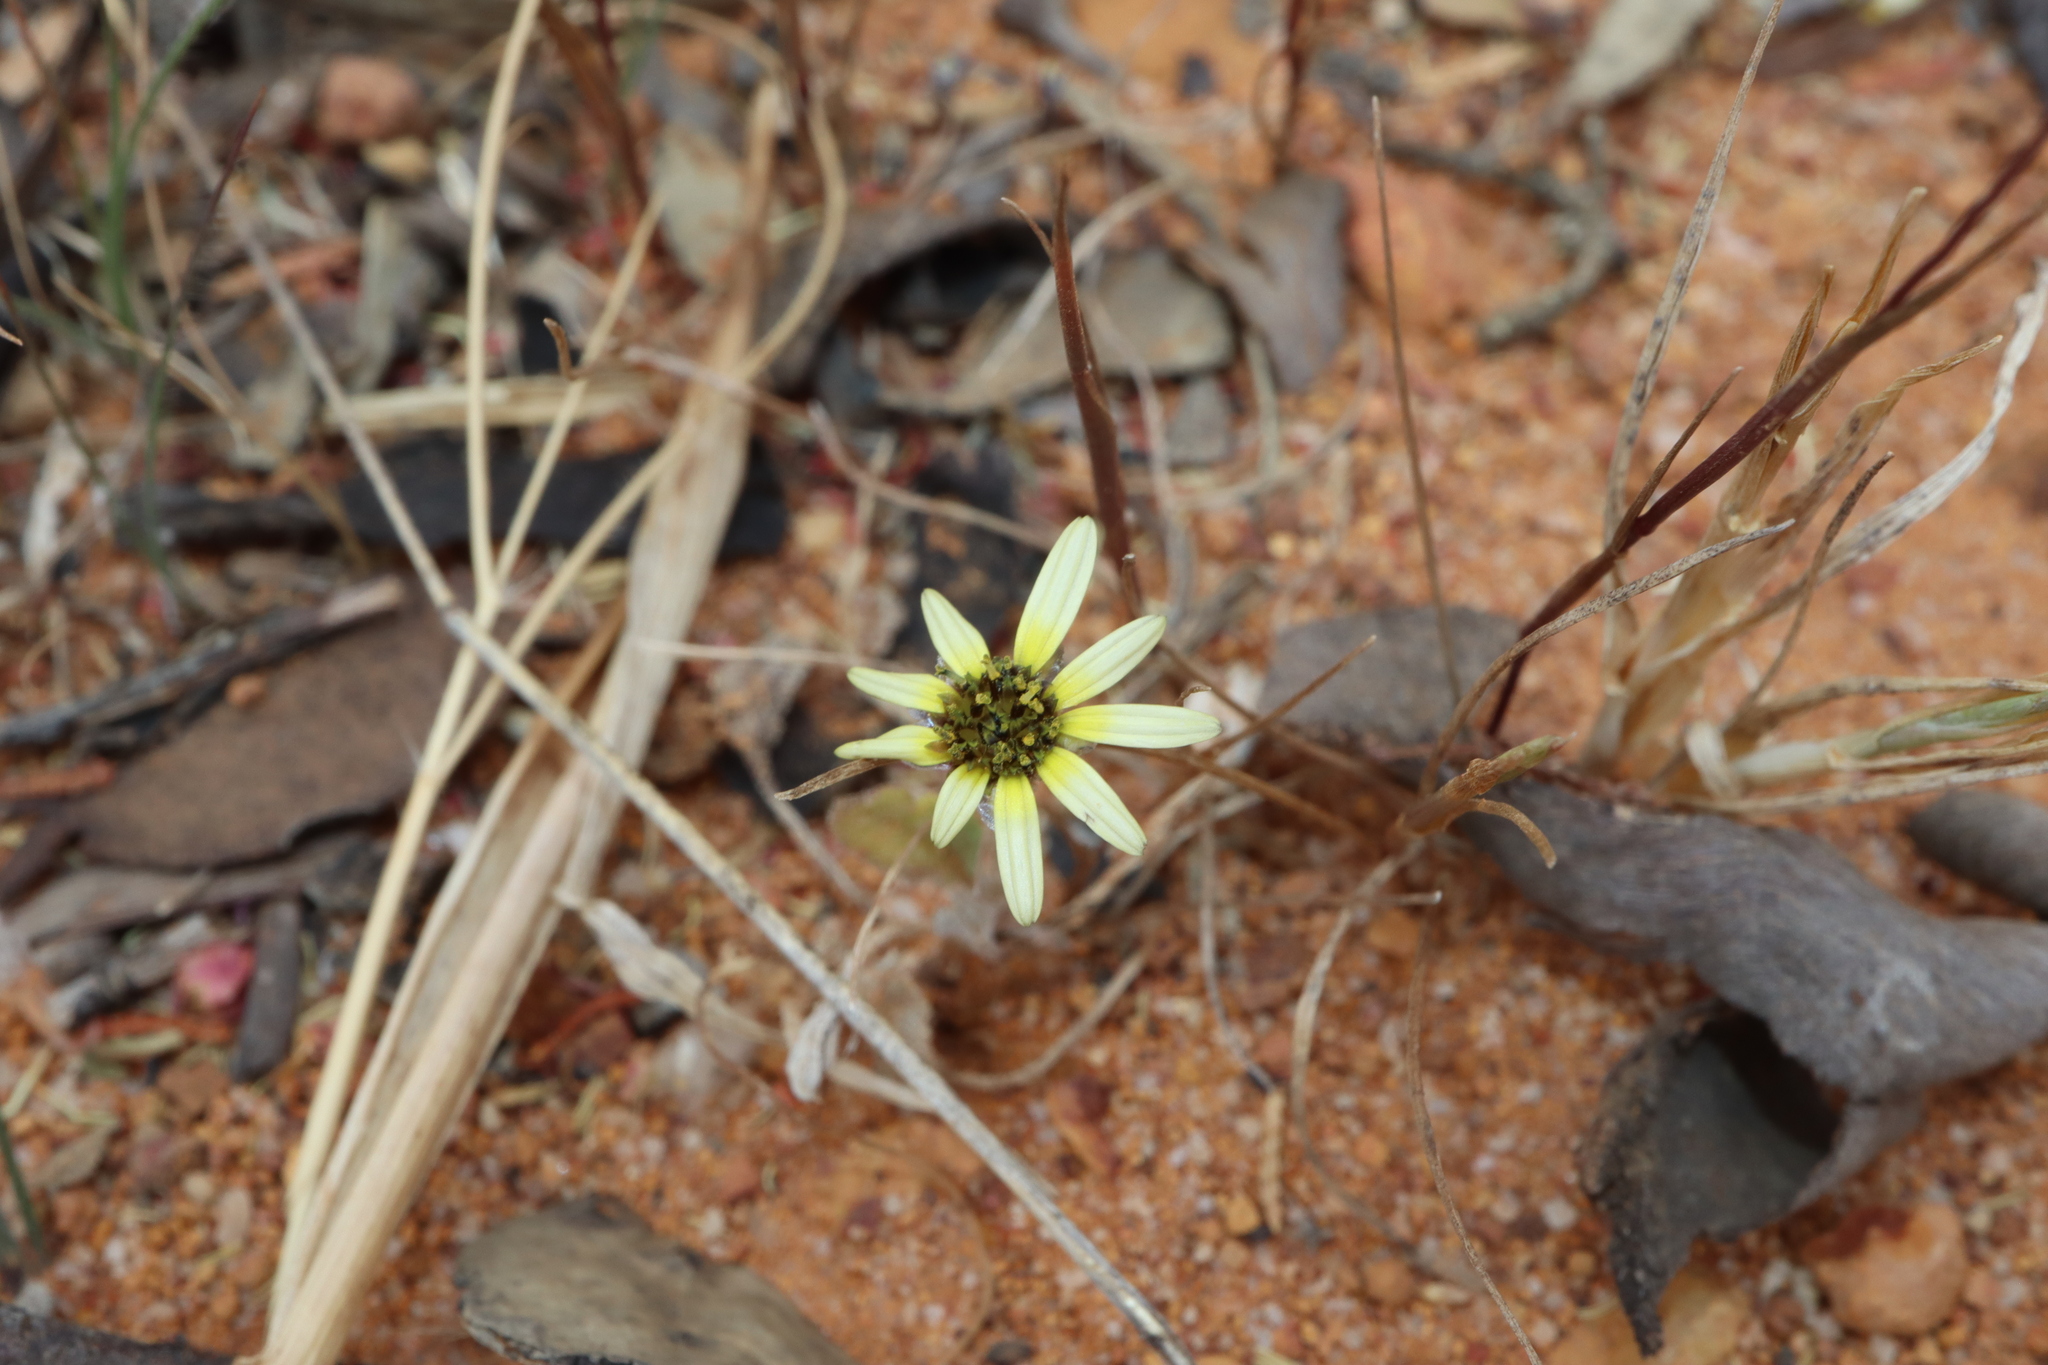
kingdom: Plantae
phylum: Tracheophyta
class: Magnoliopsida
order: Asterales
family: Asteraceae
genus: Arctotheca
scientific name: Arctotheca calendula
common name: Capeweed
